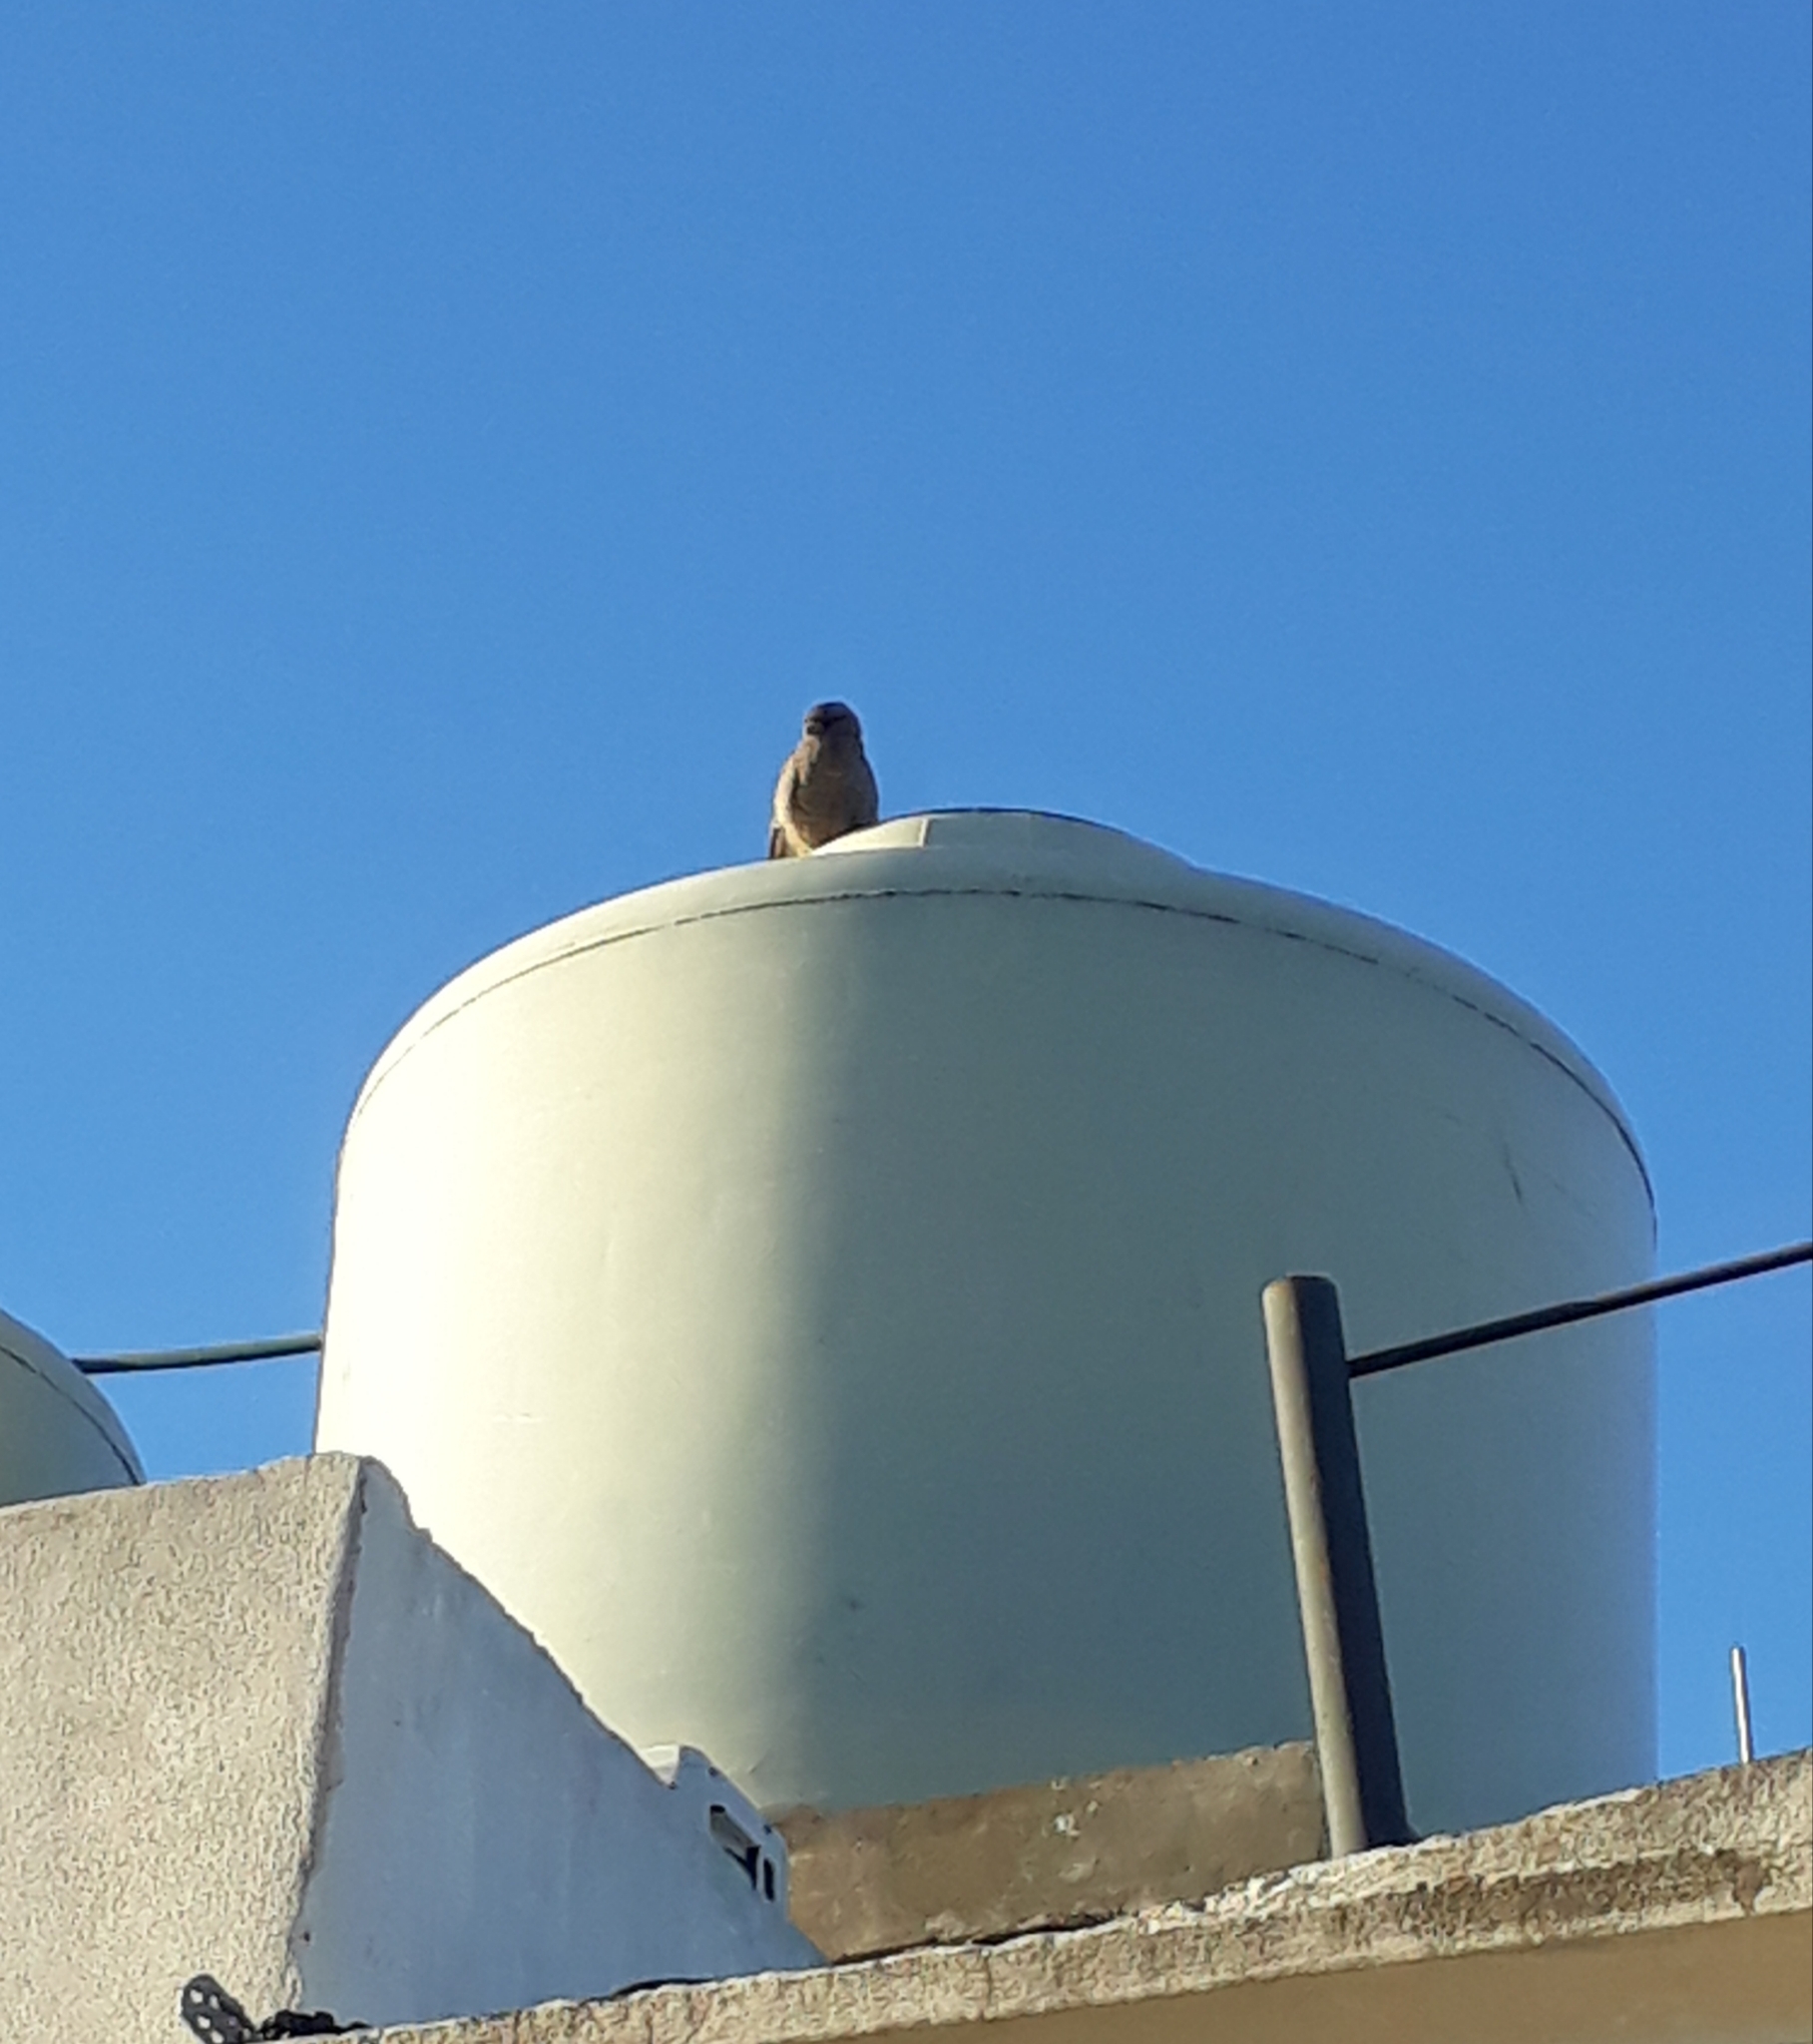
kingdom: Animalia
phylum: Chordata
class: Aves
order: Falconiformes
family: Falconidae
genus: Daptrius
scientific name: Daptrius
